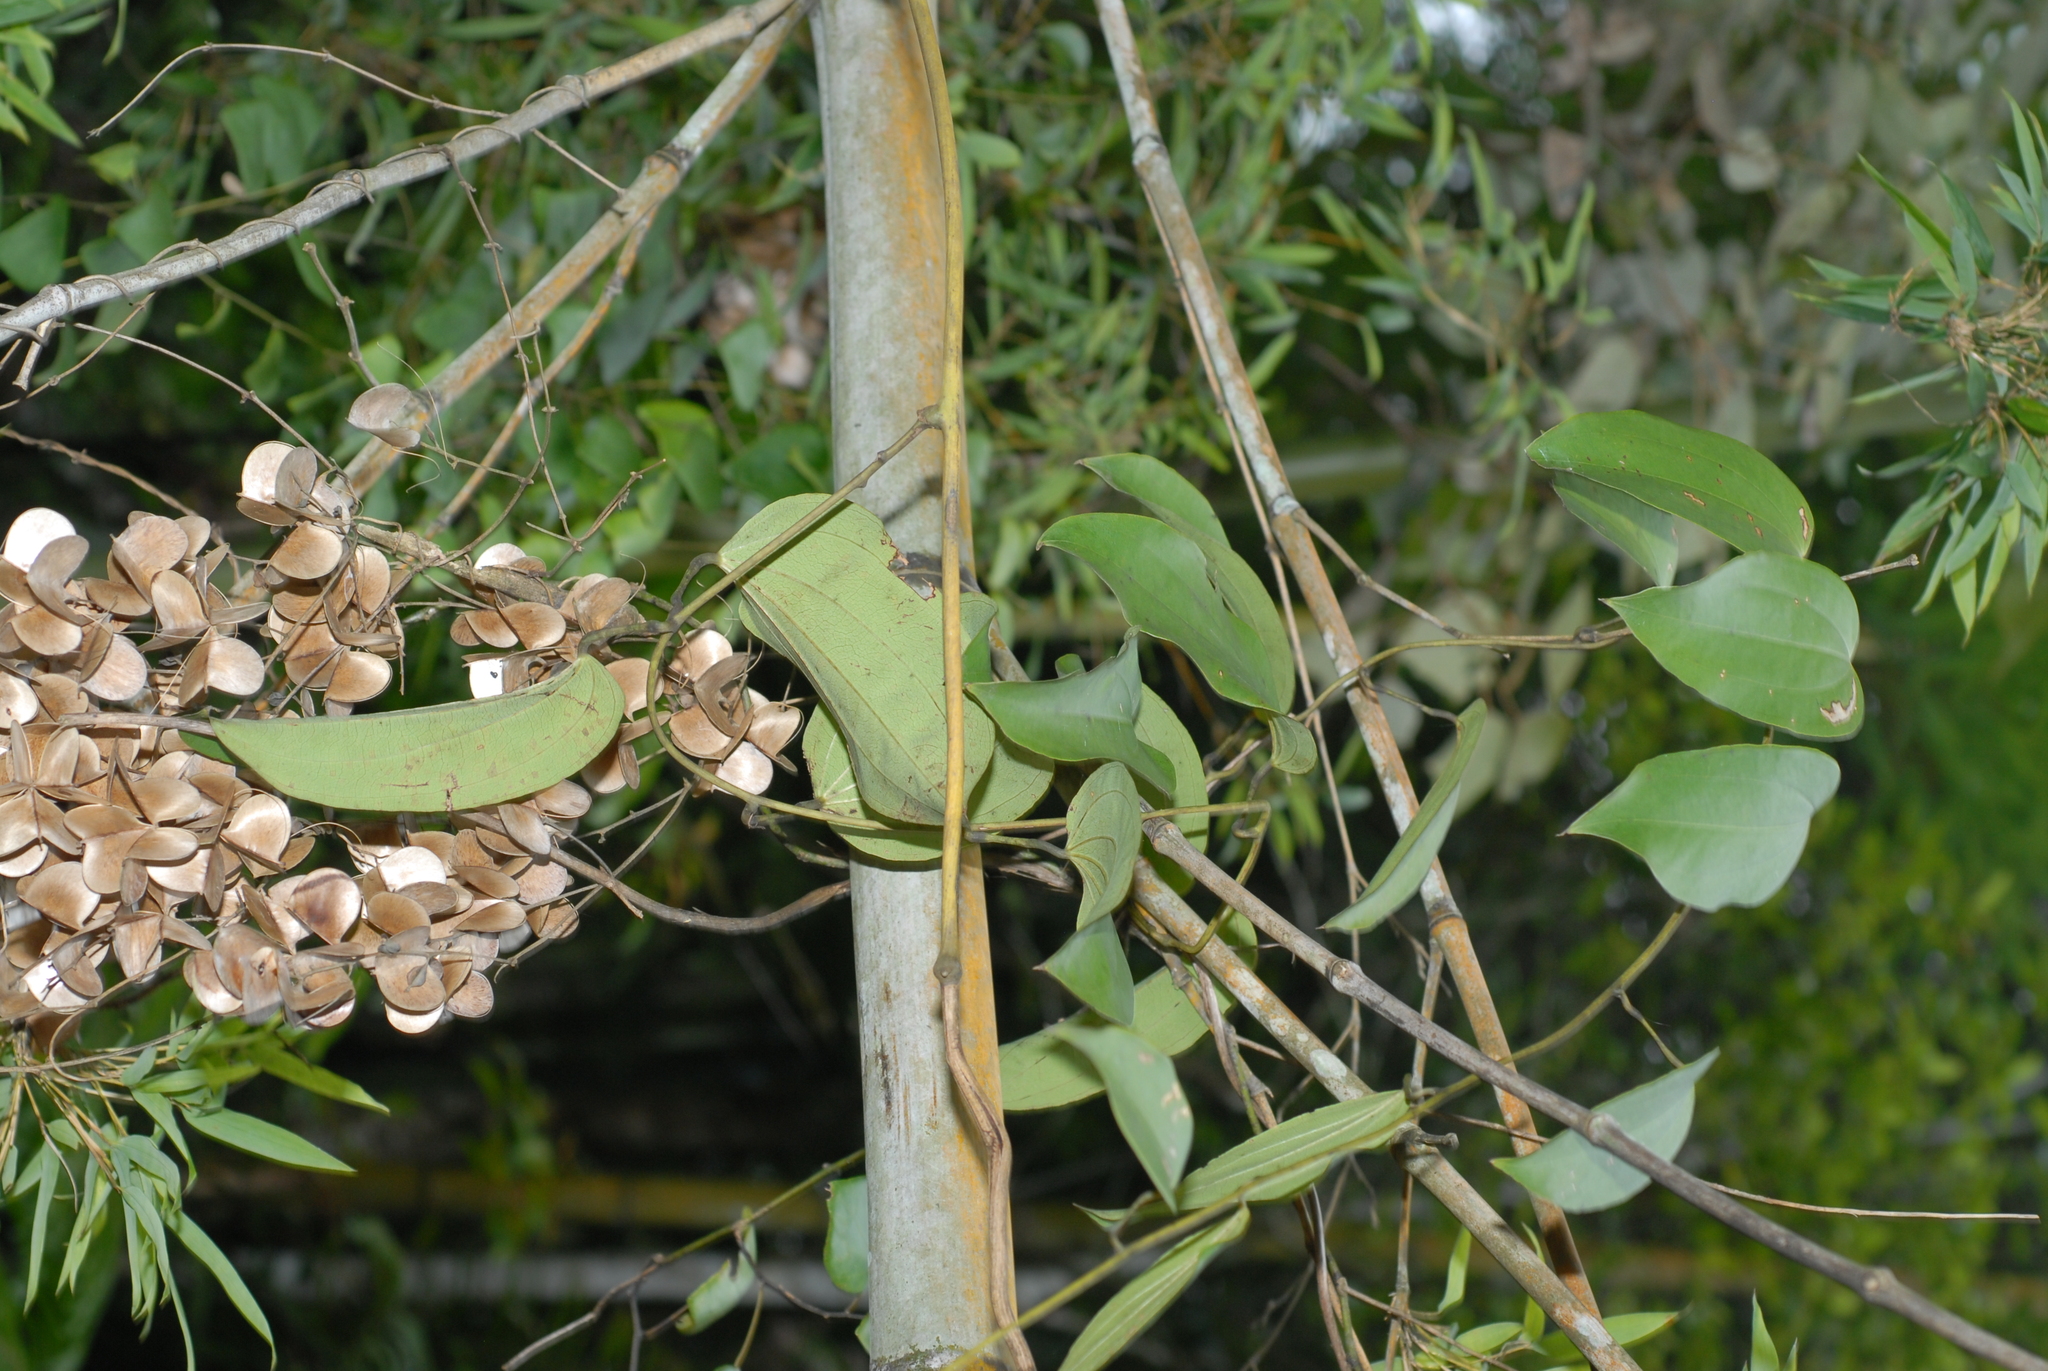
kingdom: Plantae
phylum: Tracheophyta
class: Liliopsida
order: Dioscoreales
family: Dioscoreaceae
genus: Dioscorea
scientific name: Dioscorea cirrhosa
